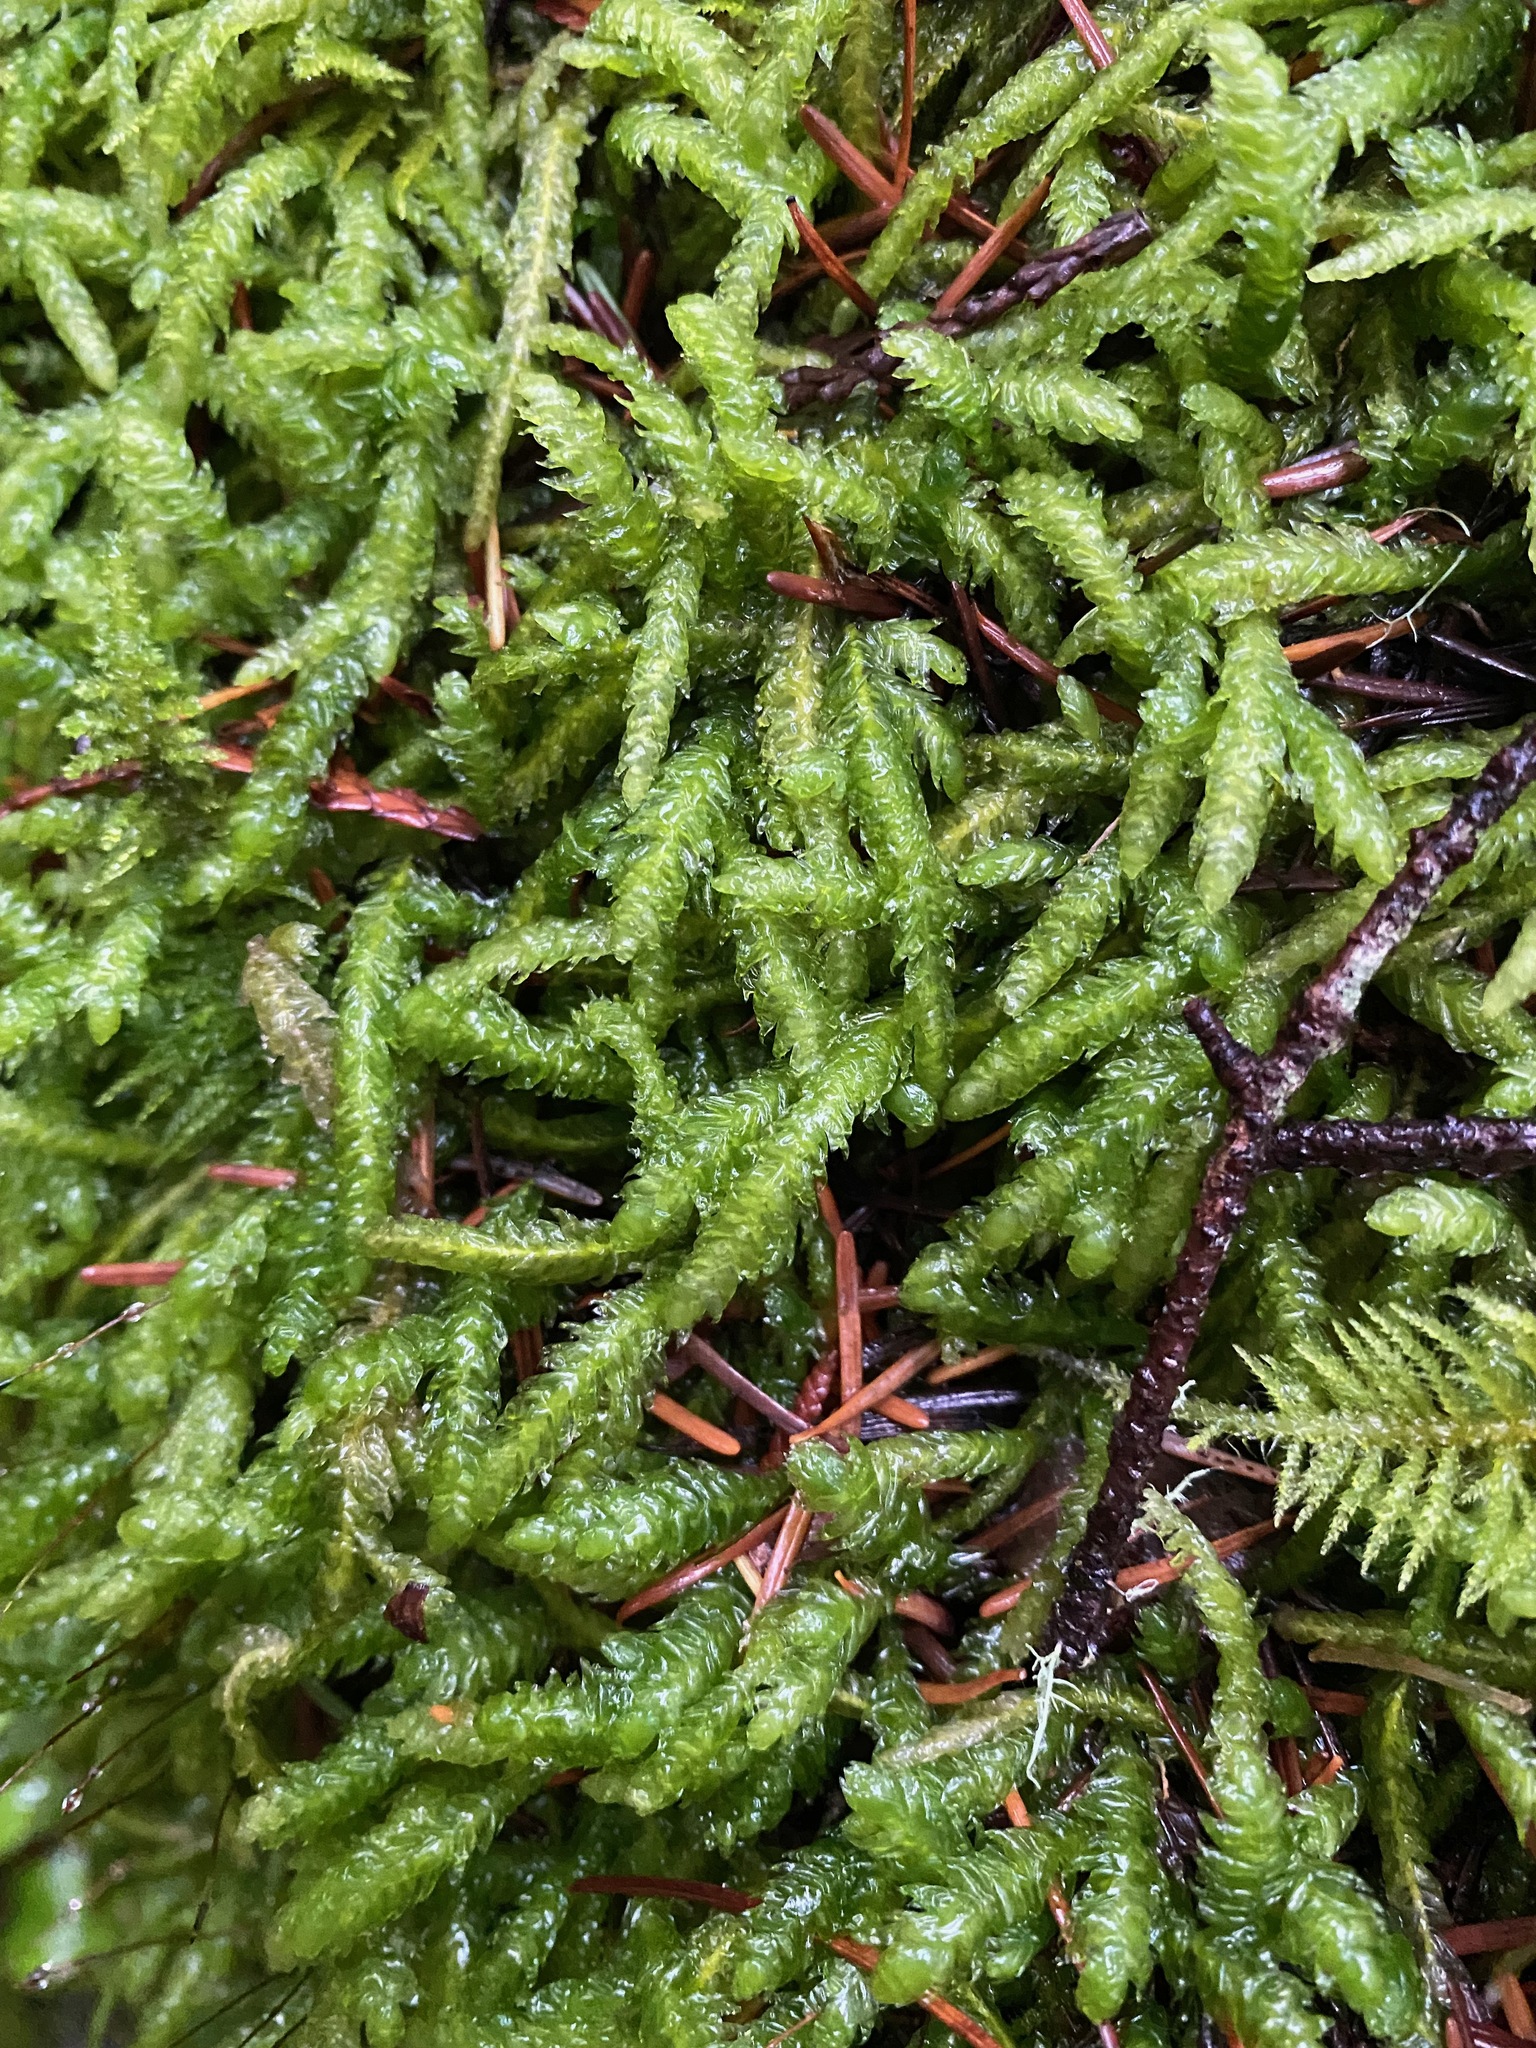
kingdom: Plantae
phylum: Bryophyta
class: Bryopsida
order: Hypnales
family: Plagiotheciaceae
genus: Plagiothecium
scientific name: Plagiothecium undulatum
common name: Waved silk-moss
